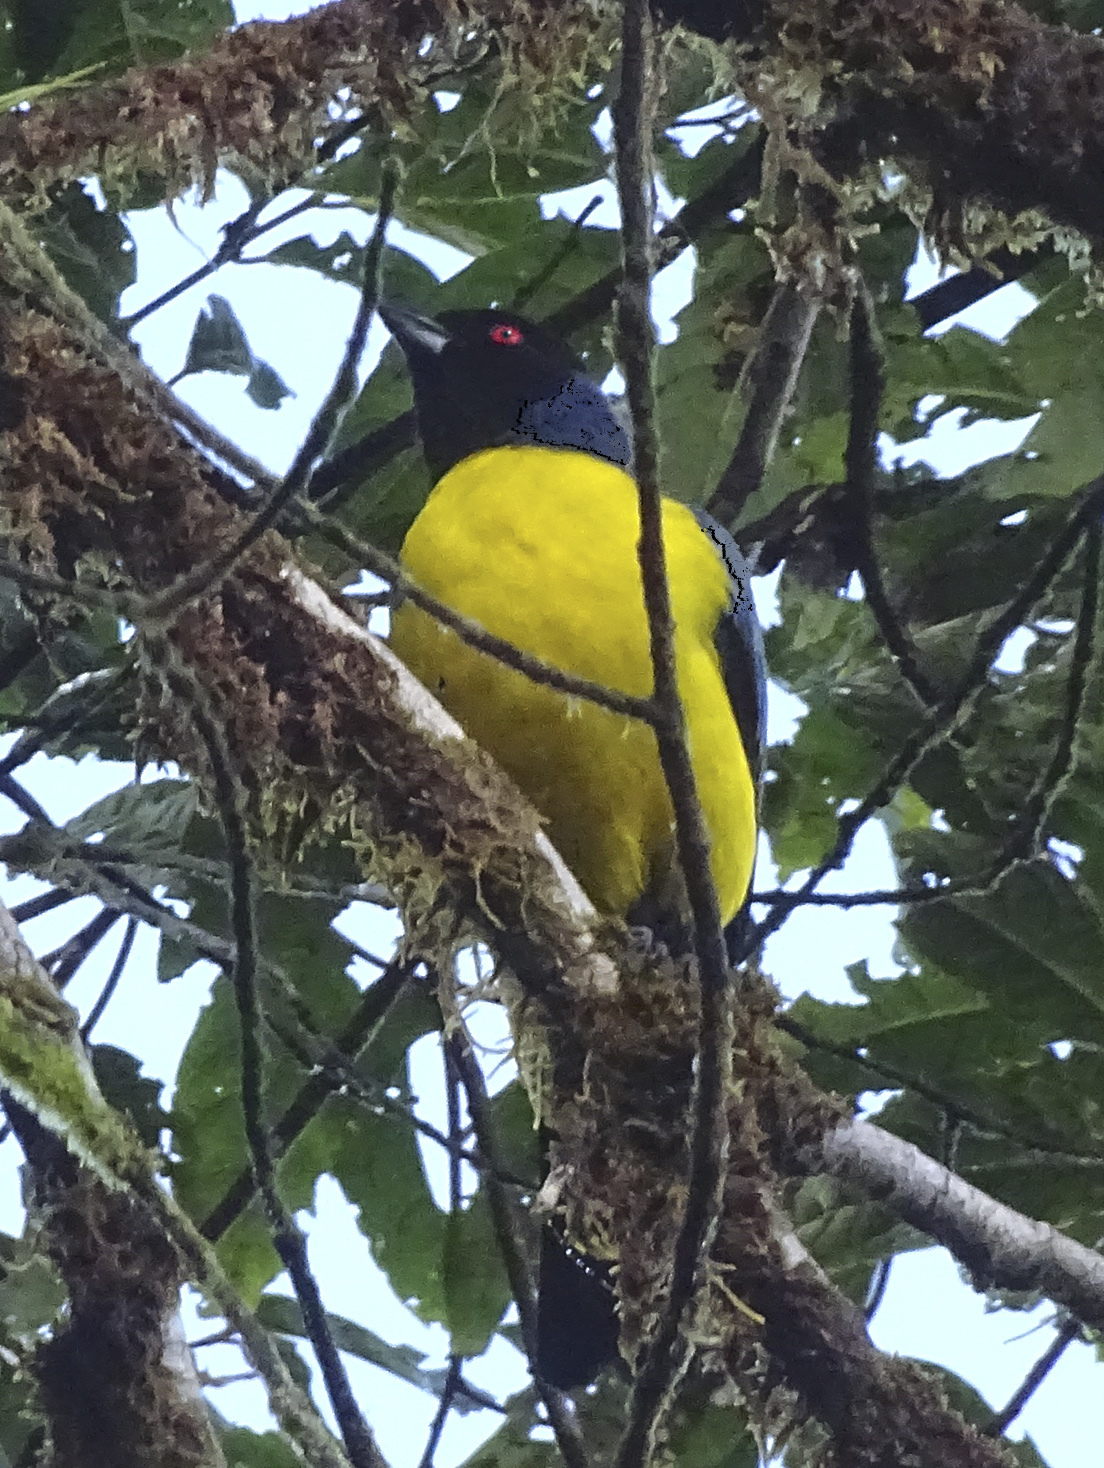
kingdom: Animalia
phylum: Chordata
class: Aves
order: Passeriformes
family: Thraupidae
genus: Buthraupis
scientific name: Buthraupis montana
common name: Hooded mountain tanager
